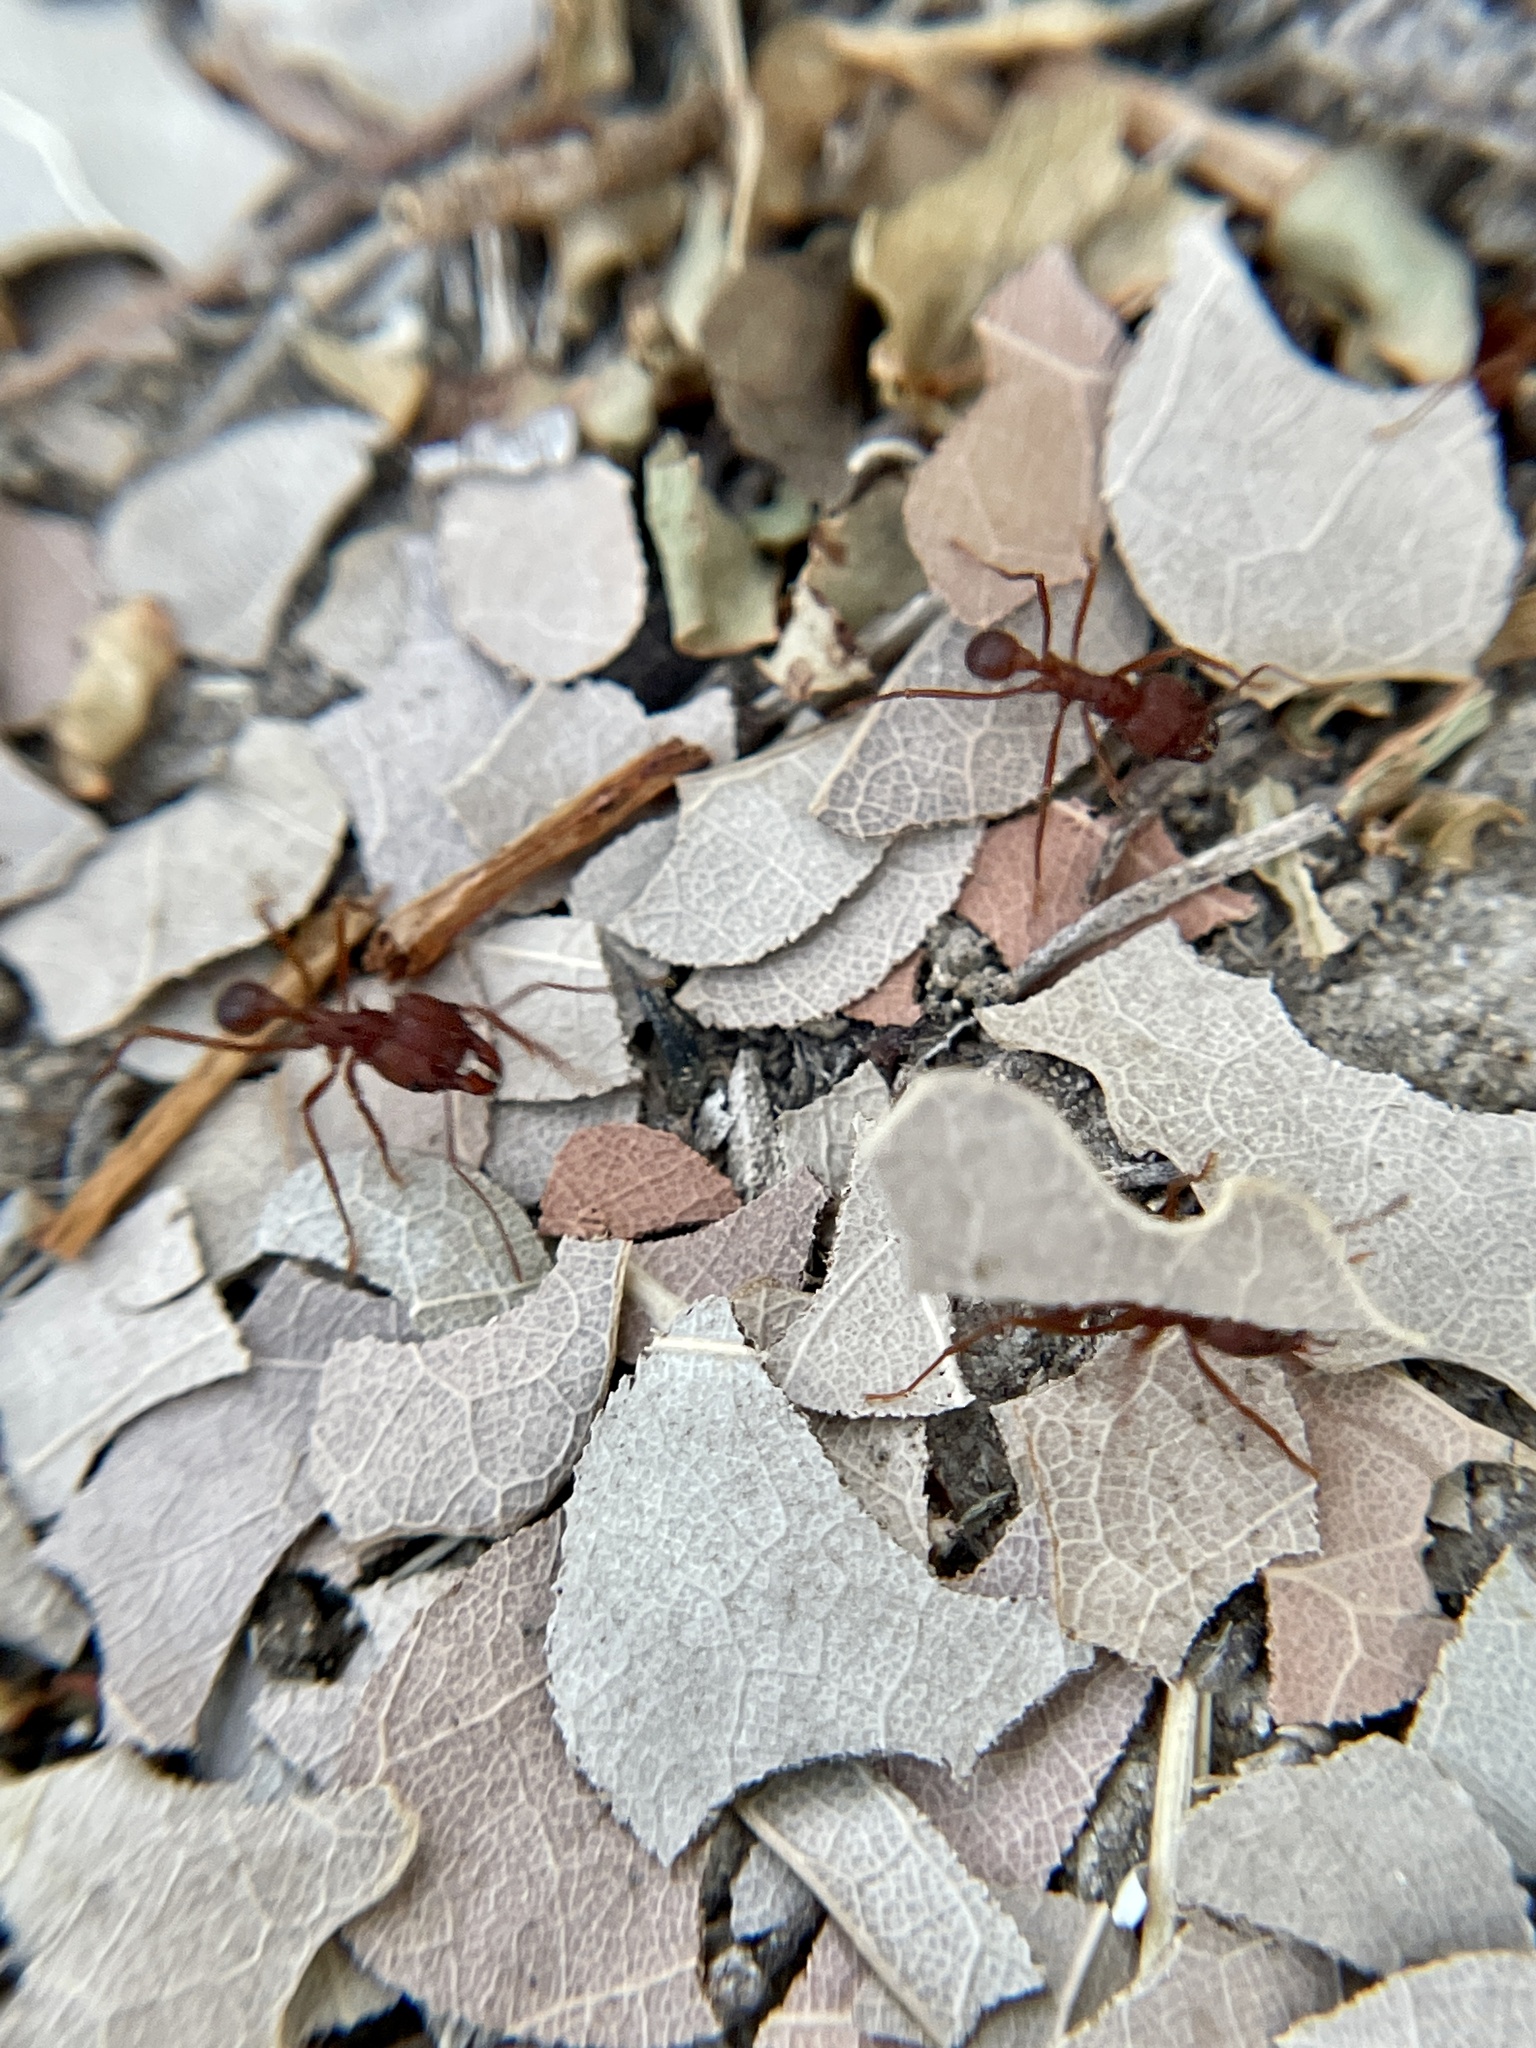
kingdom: Animalia
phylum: Arthropoda
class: Insecta
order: Hymenoptera
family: Formicidae
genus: Atta
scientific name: Atta texana
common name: Texas leafcutting ant
